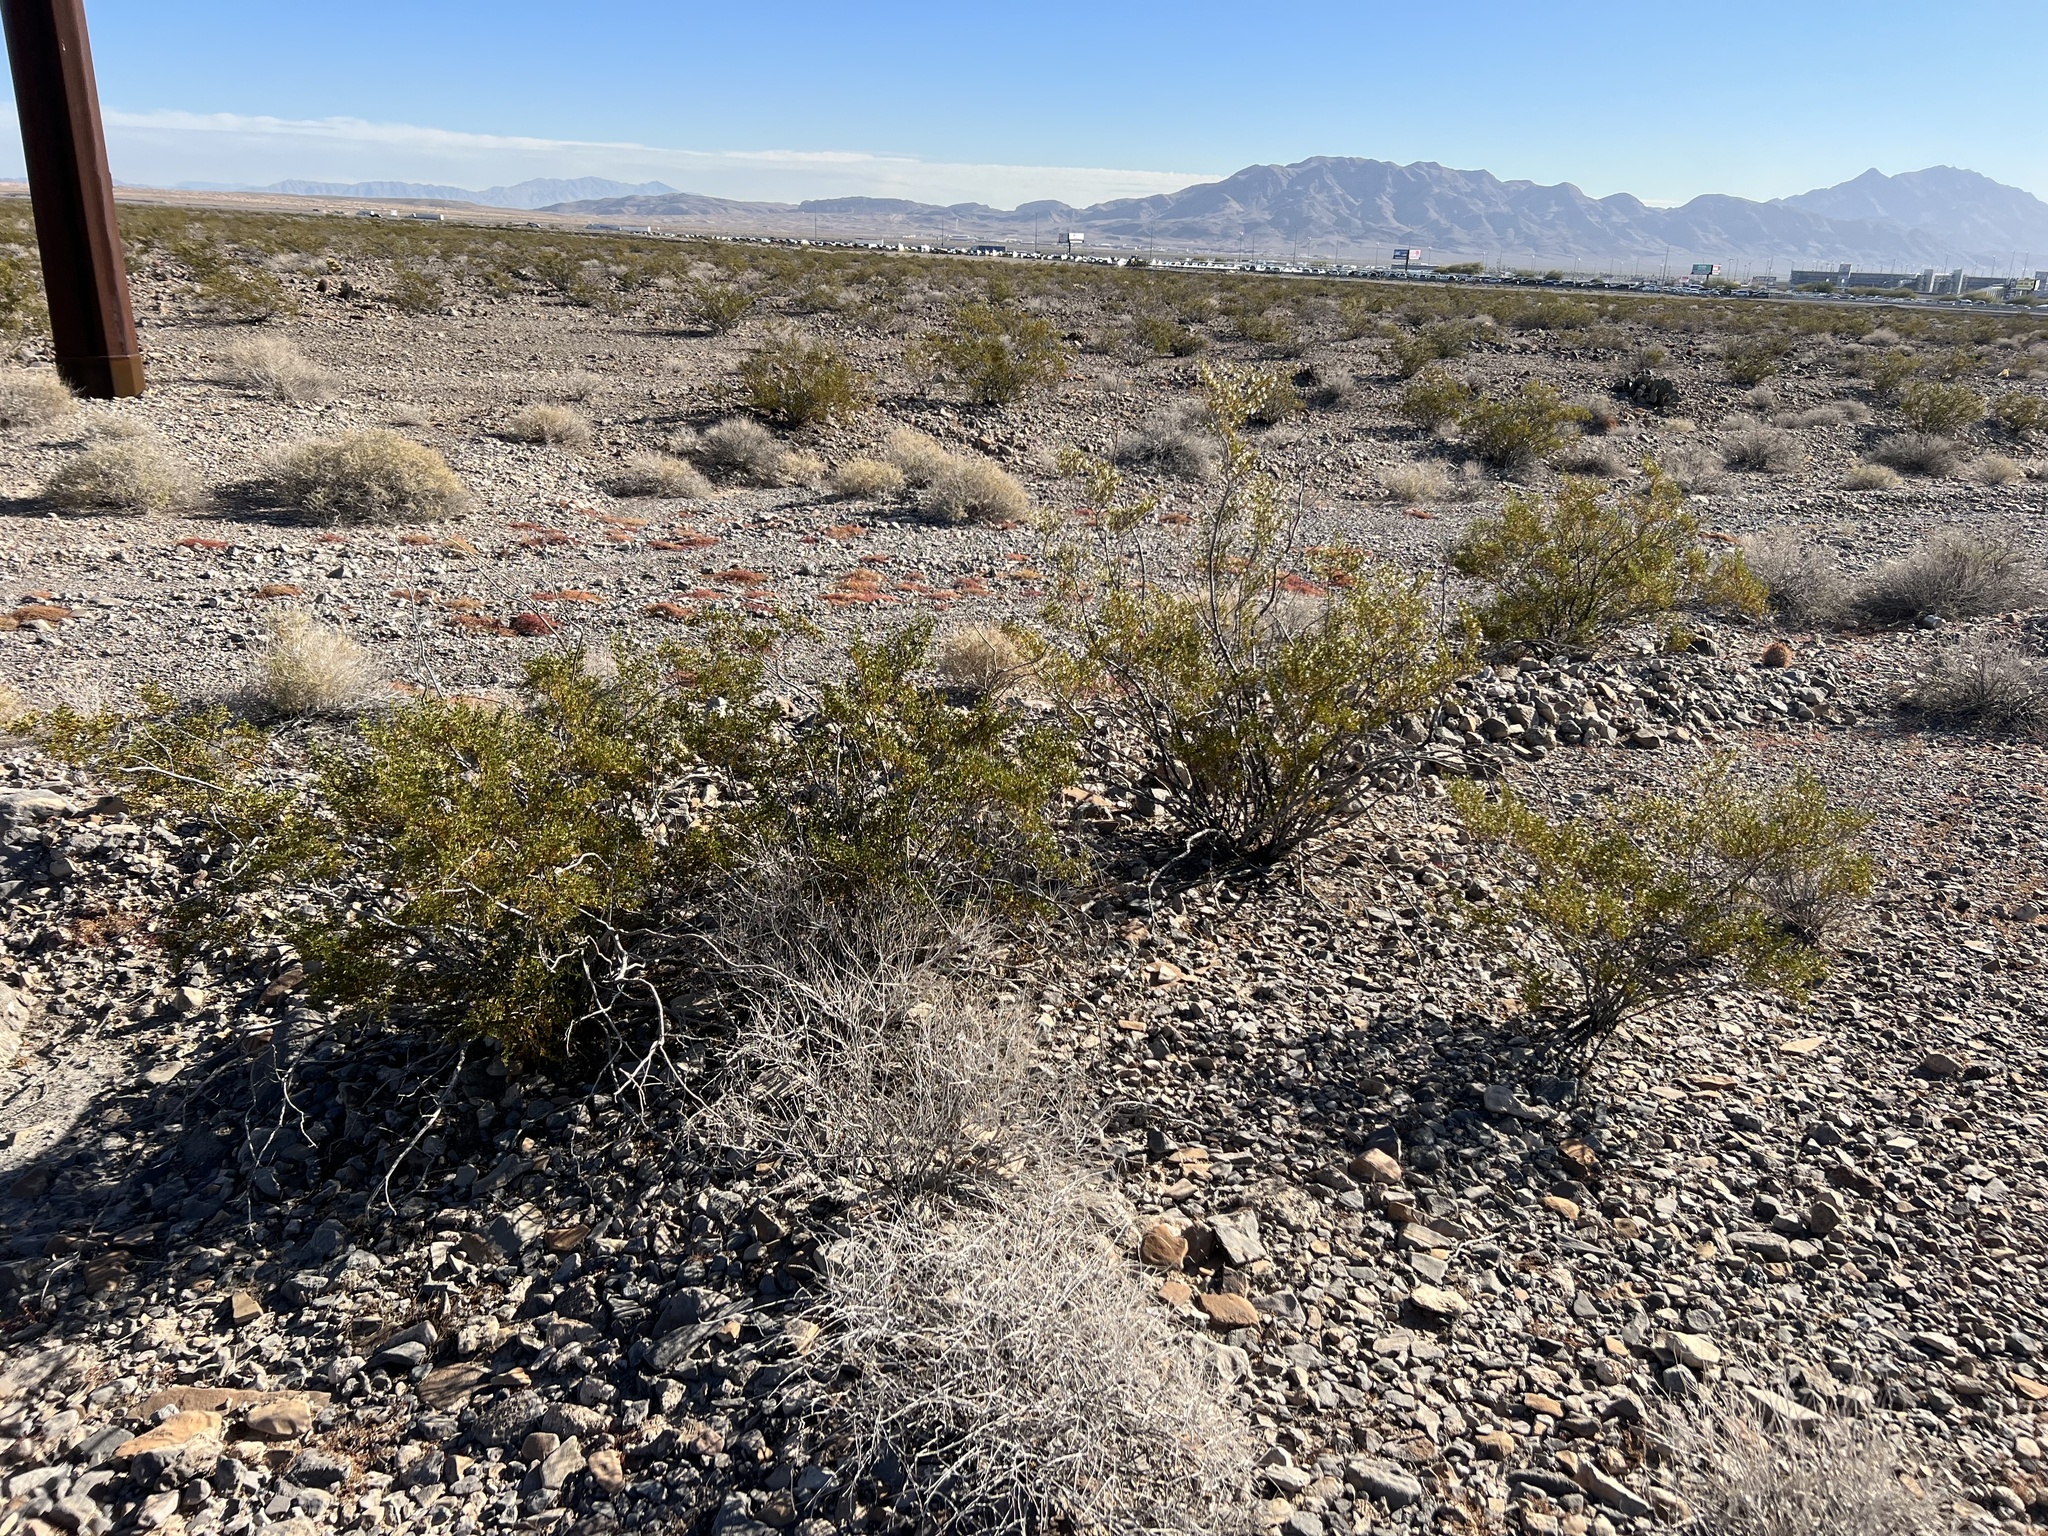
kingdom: Plantae
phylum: Tracheophyta
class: Magnoliopsida
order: Zygophyllales
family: Zygophyllaceae
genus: Larrea
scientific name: Larrea tridentata
